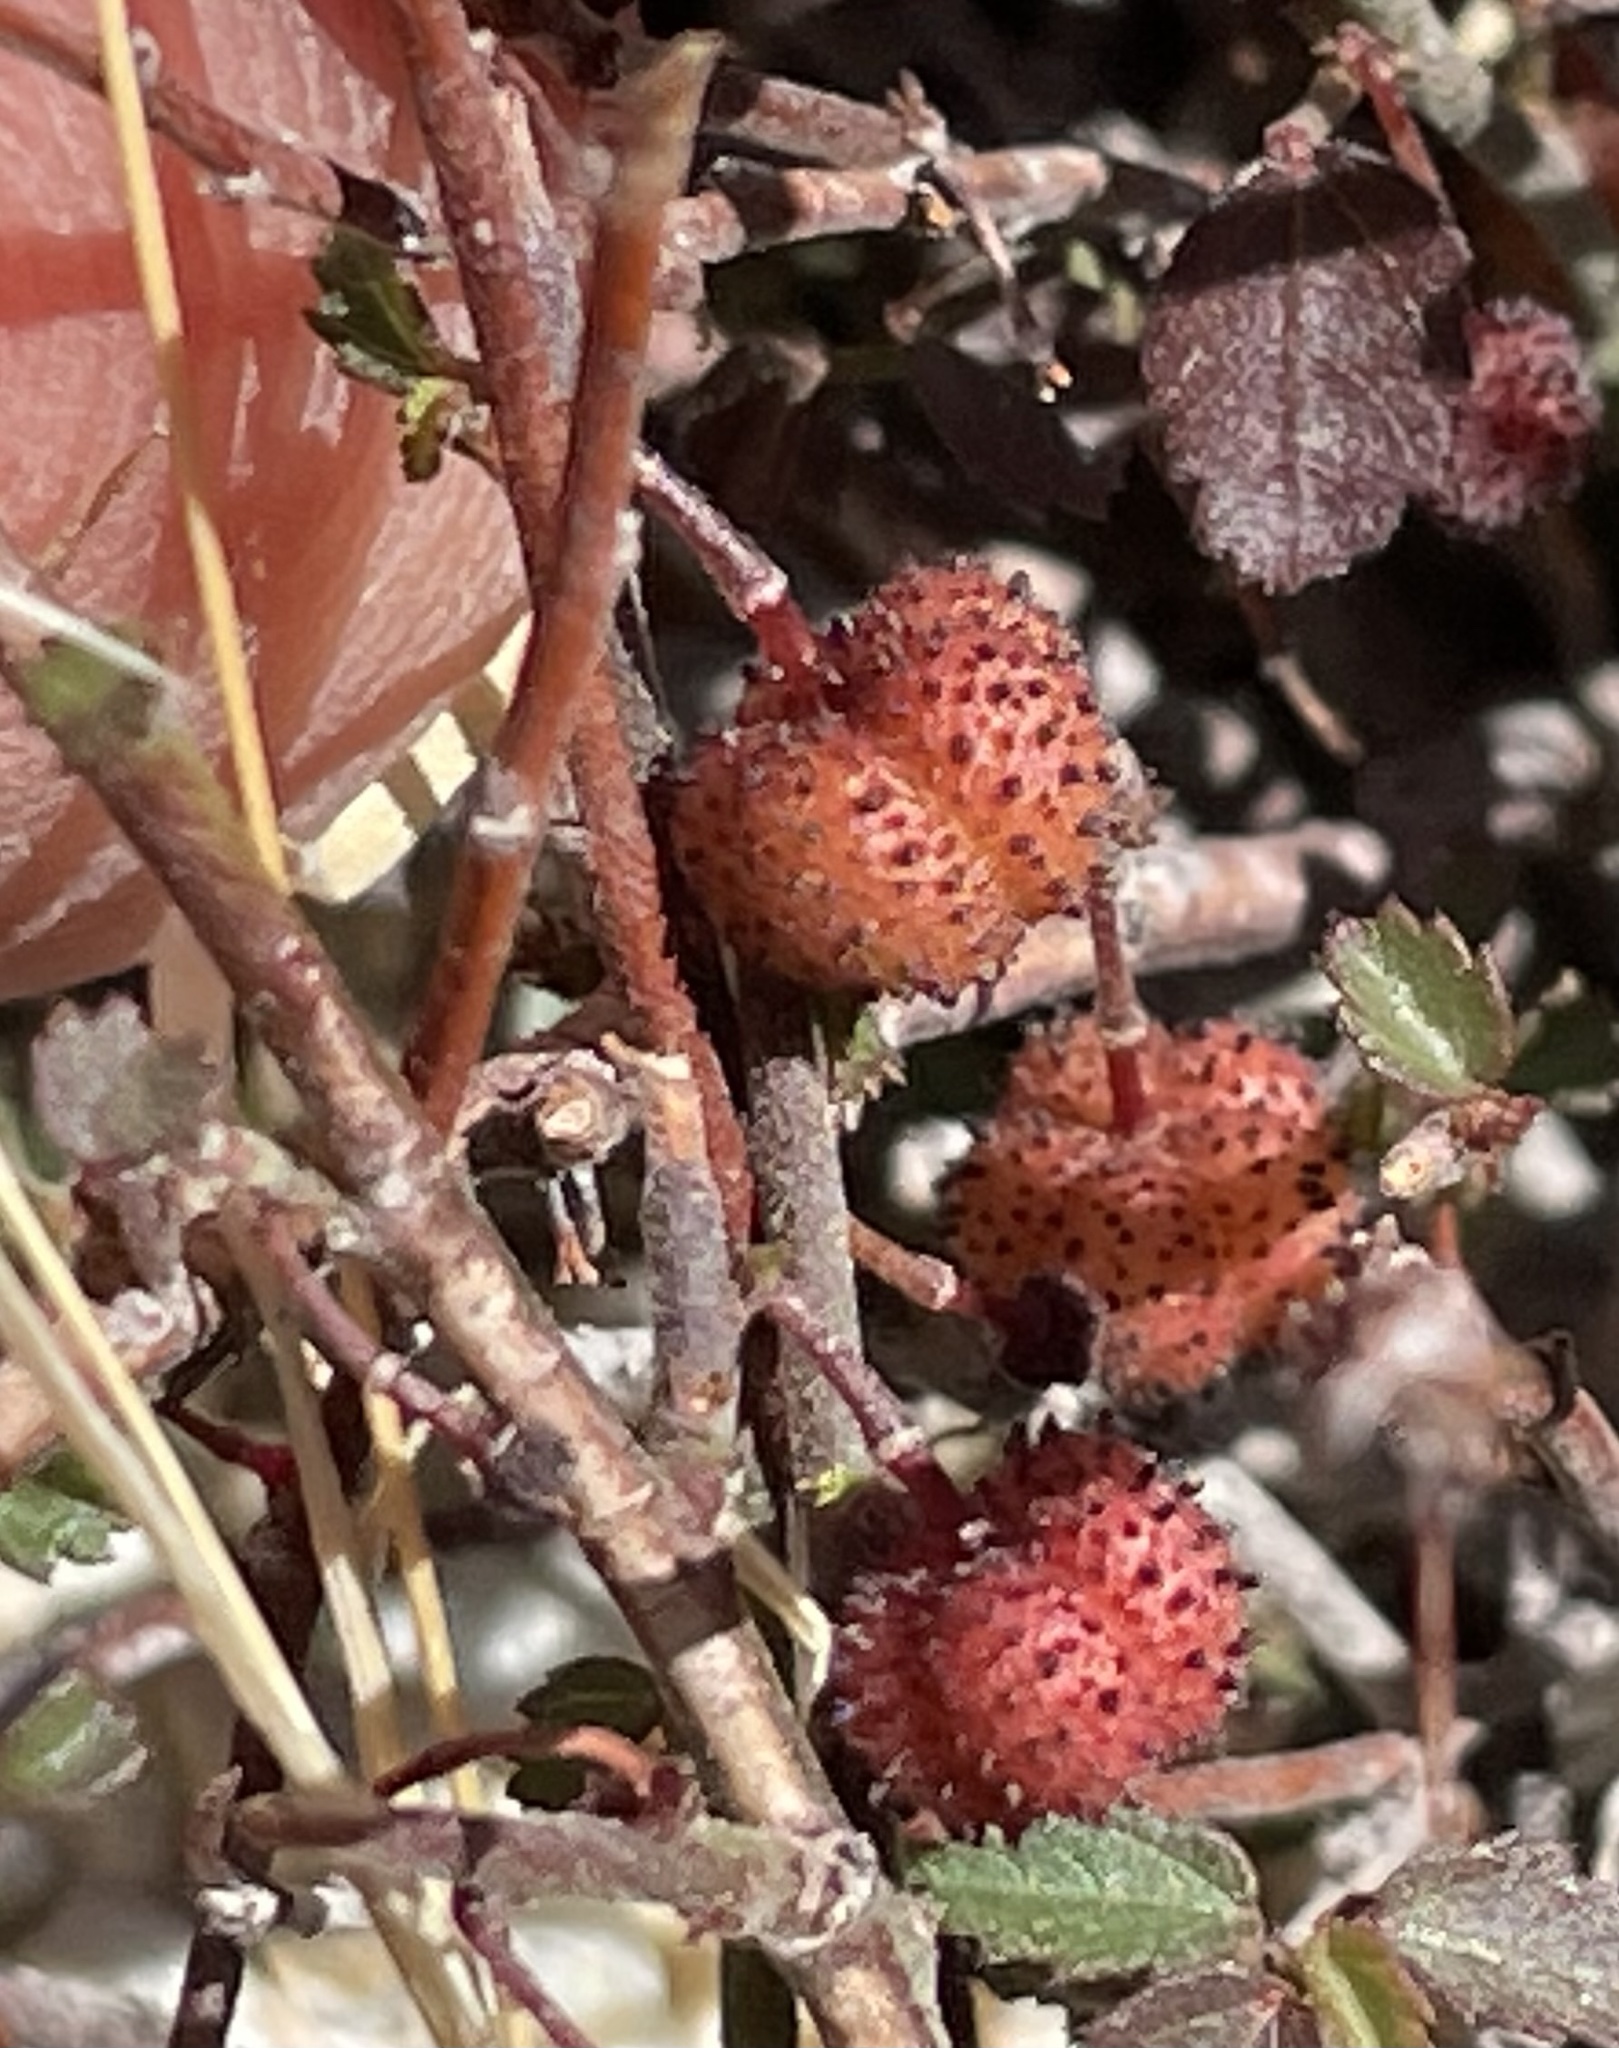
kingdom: Plantae
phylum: Tracheophyta
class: Magnoliopsida
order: Malvales
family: Malvaceae
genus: Ayenia
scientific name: Ayenia compacta
